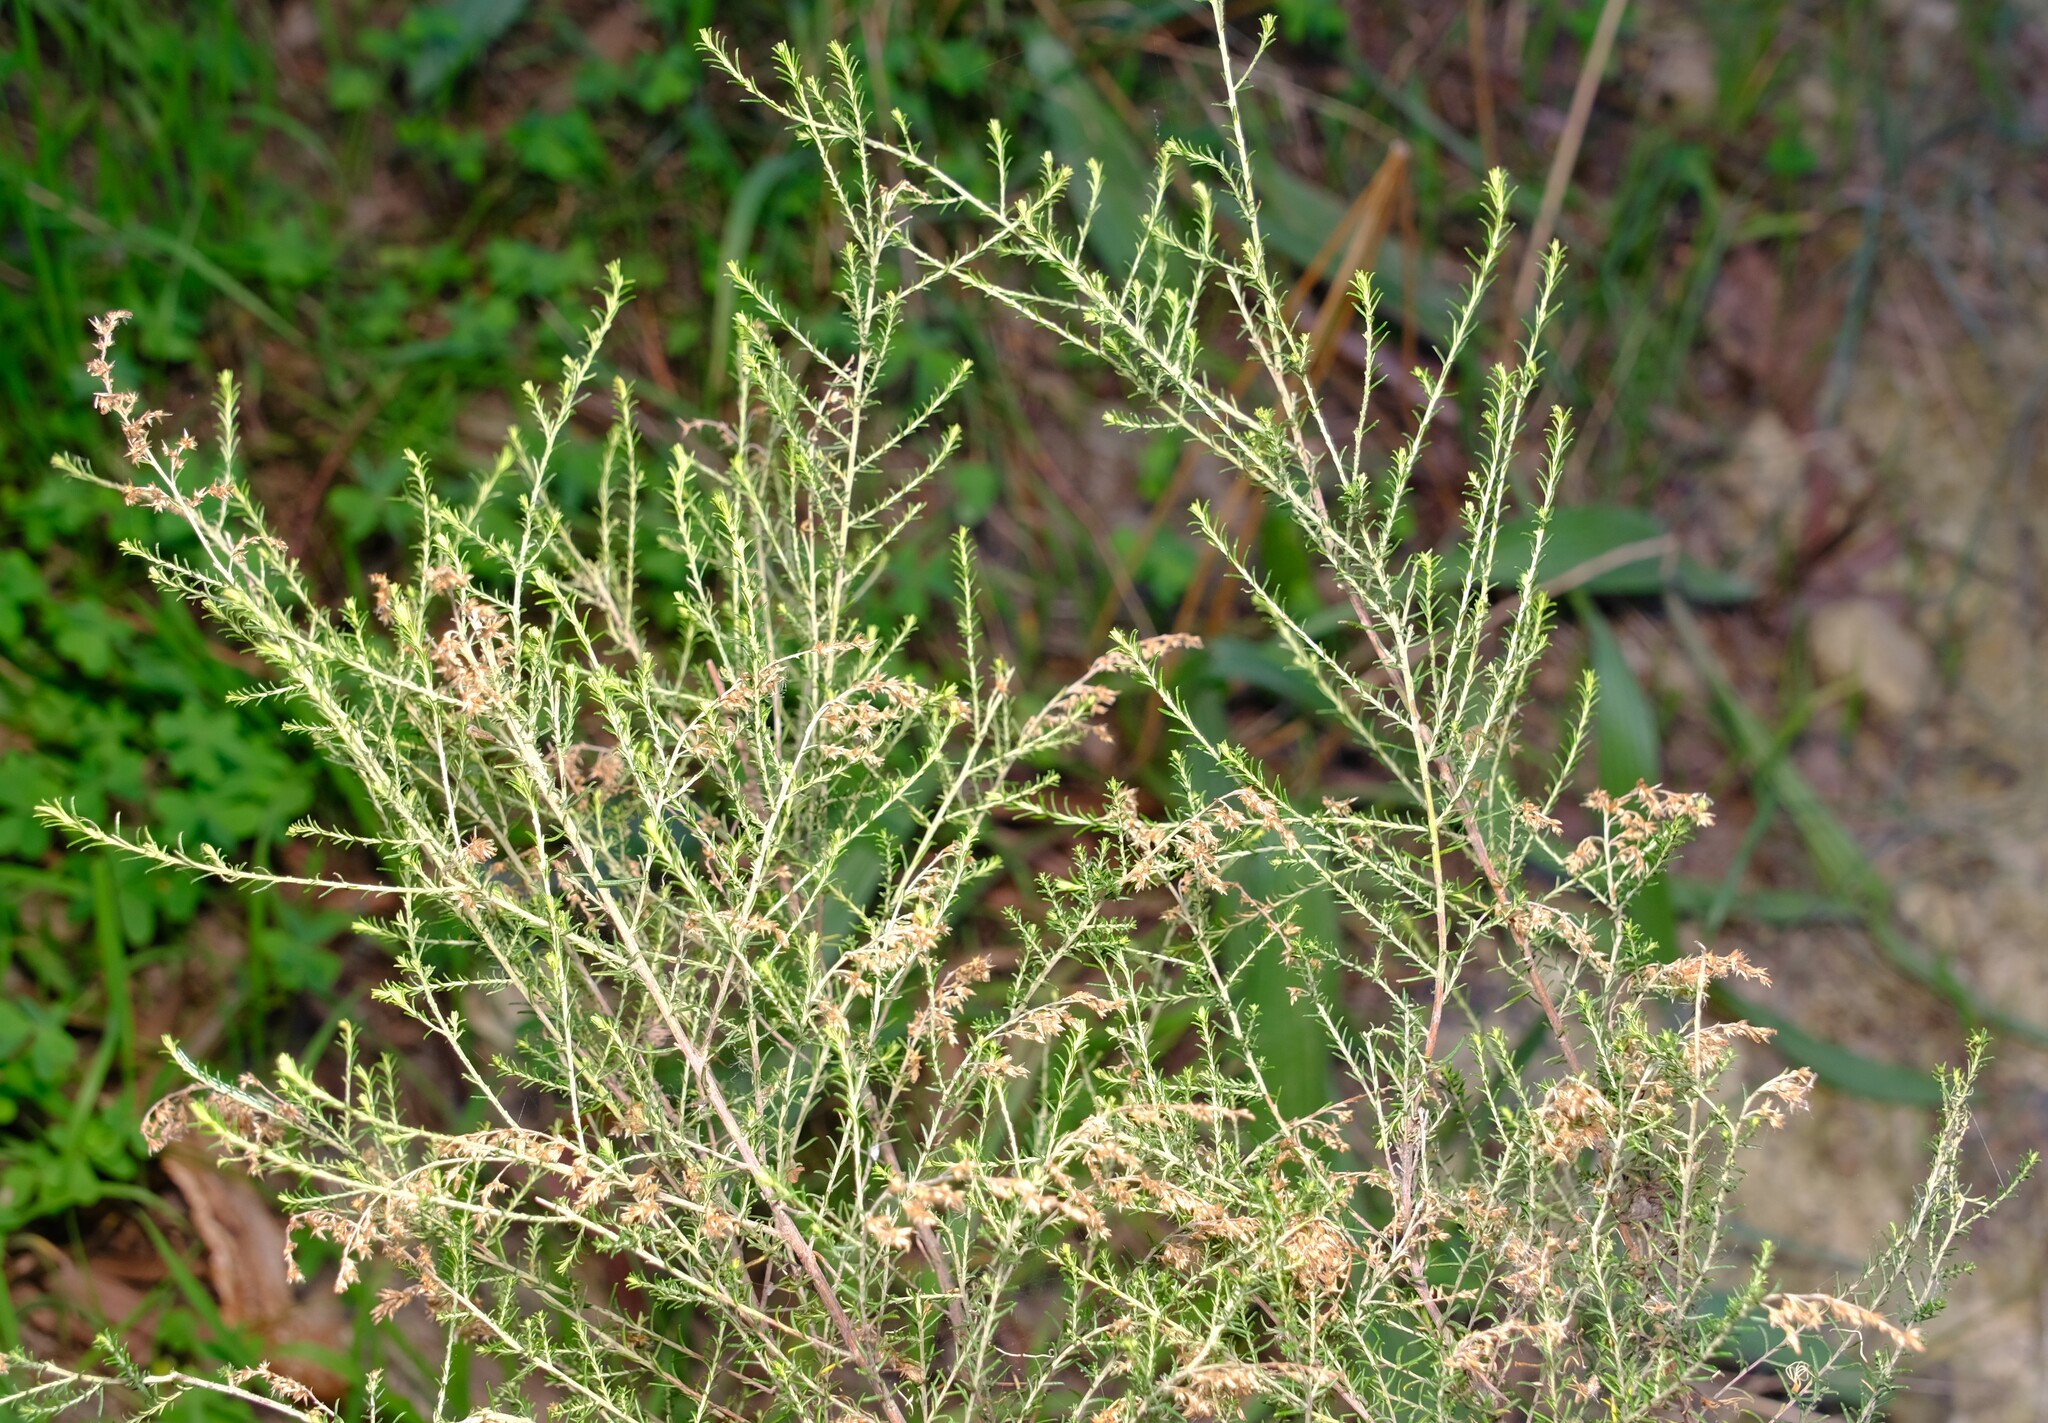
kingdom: Plantae
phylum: Tracheophyta
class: Magnoliopsida
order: Asterales
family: Asteraceae
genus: Cassinia
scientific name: Cassinia sifton
